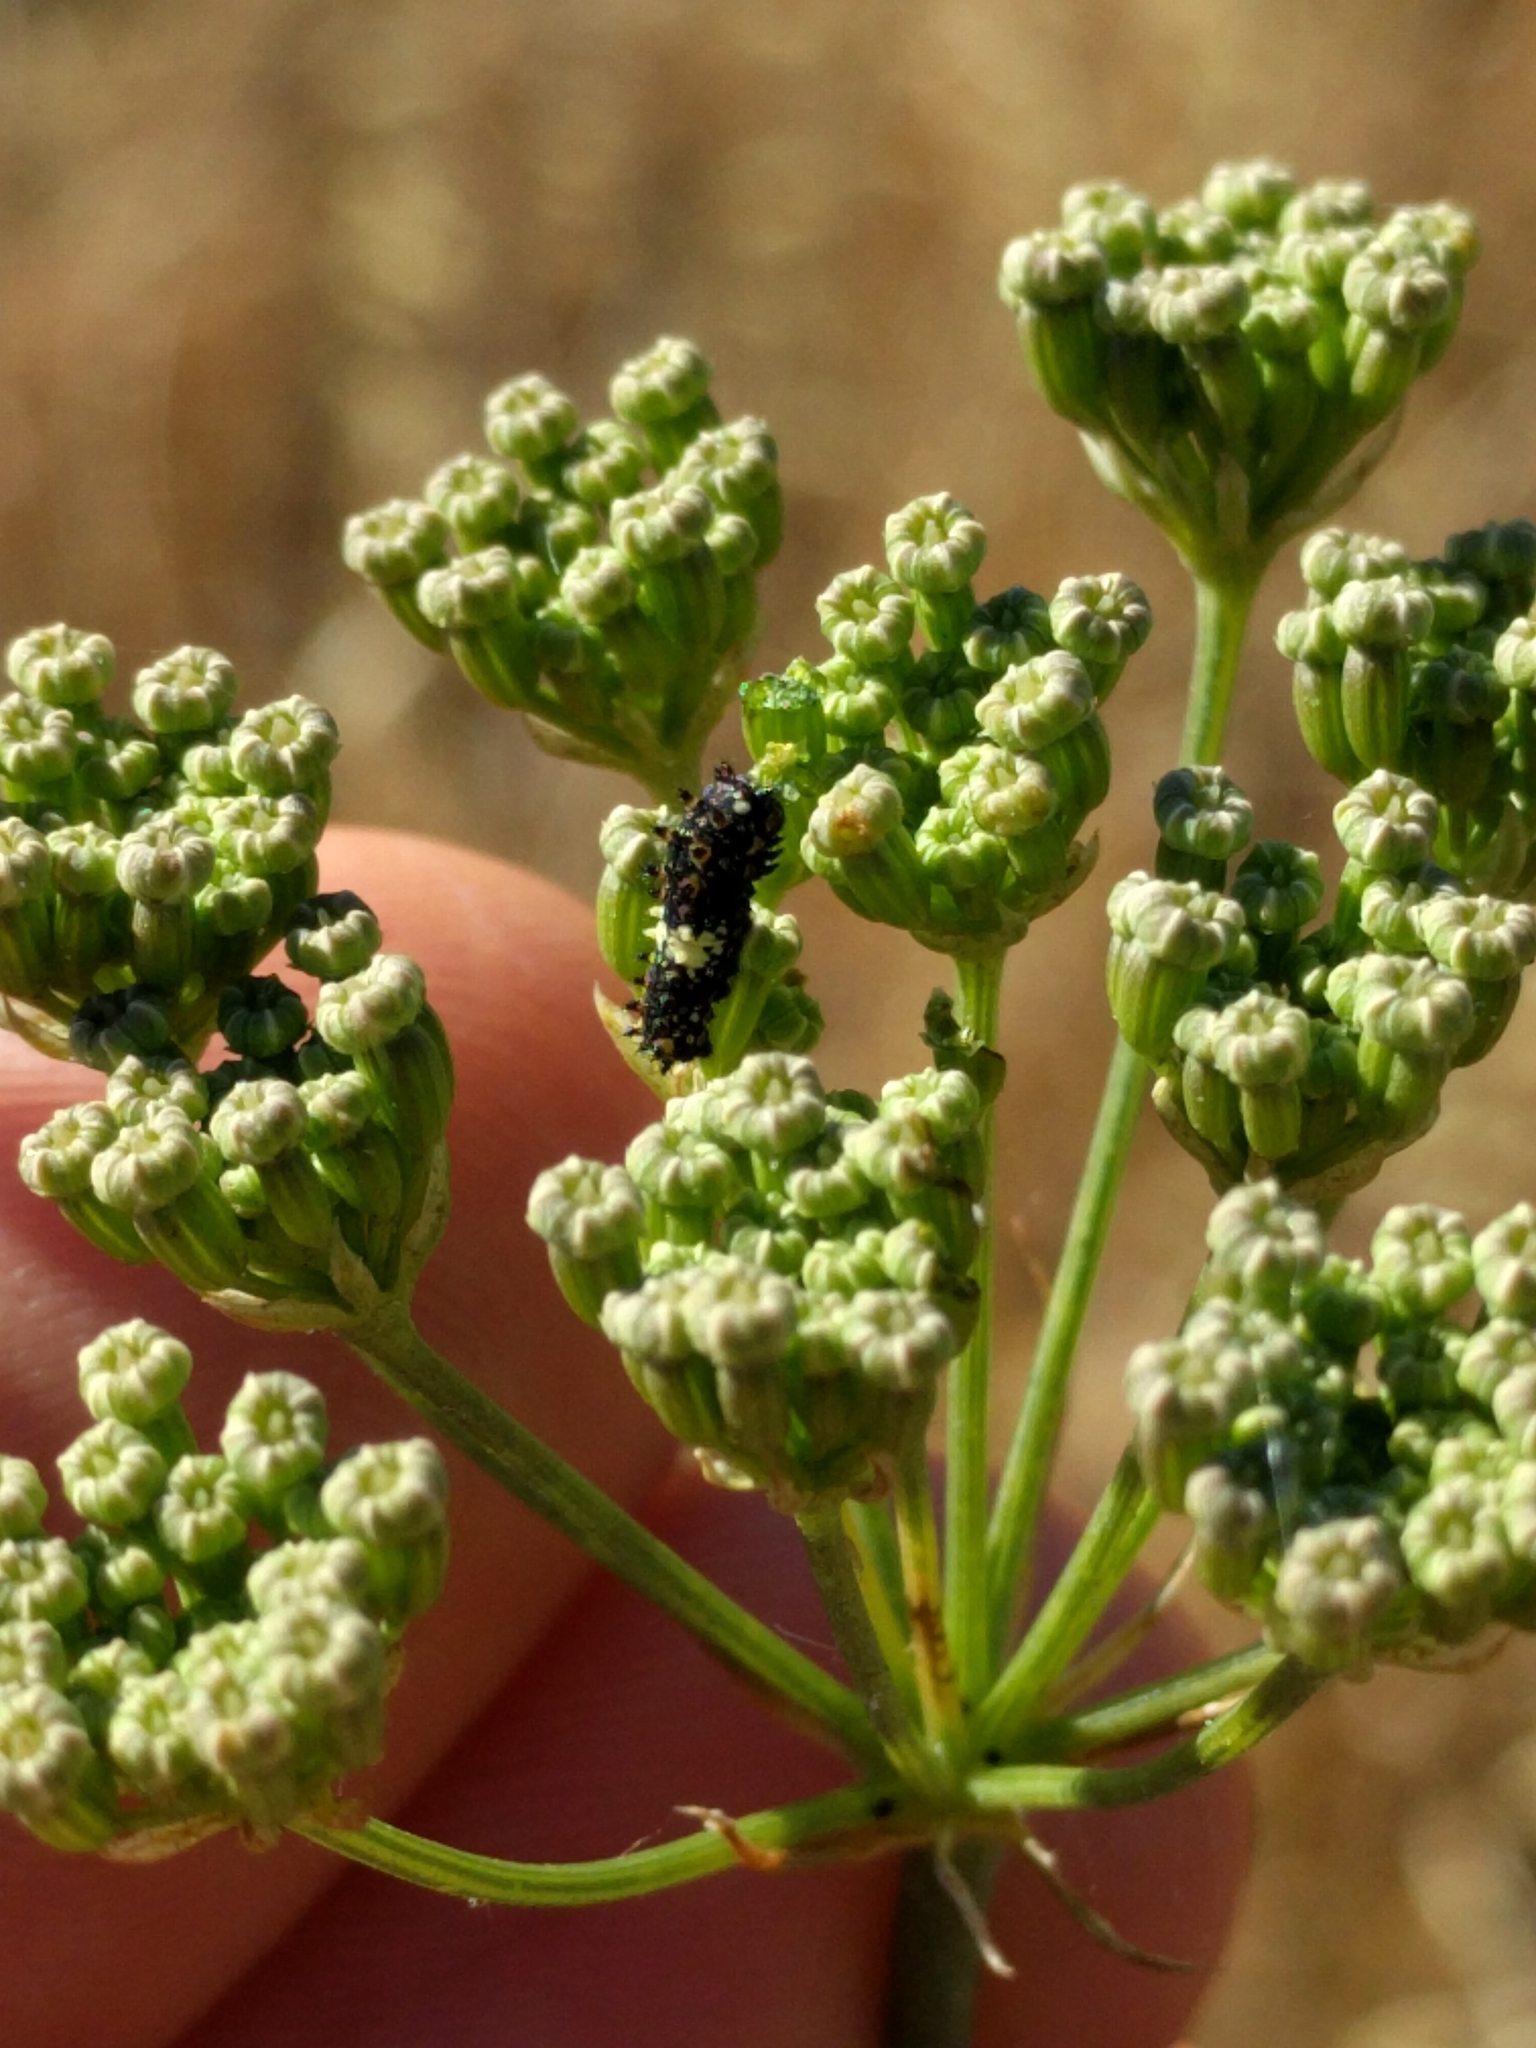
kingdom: Animalia
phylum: Arthropoda
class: Insecta
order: Lepidoptera
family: Papilionidae
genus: Papilio
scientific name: Papilio zelicaon
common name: Anise swallowtail
